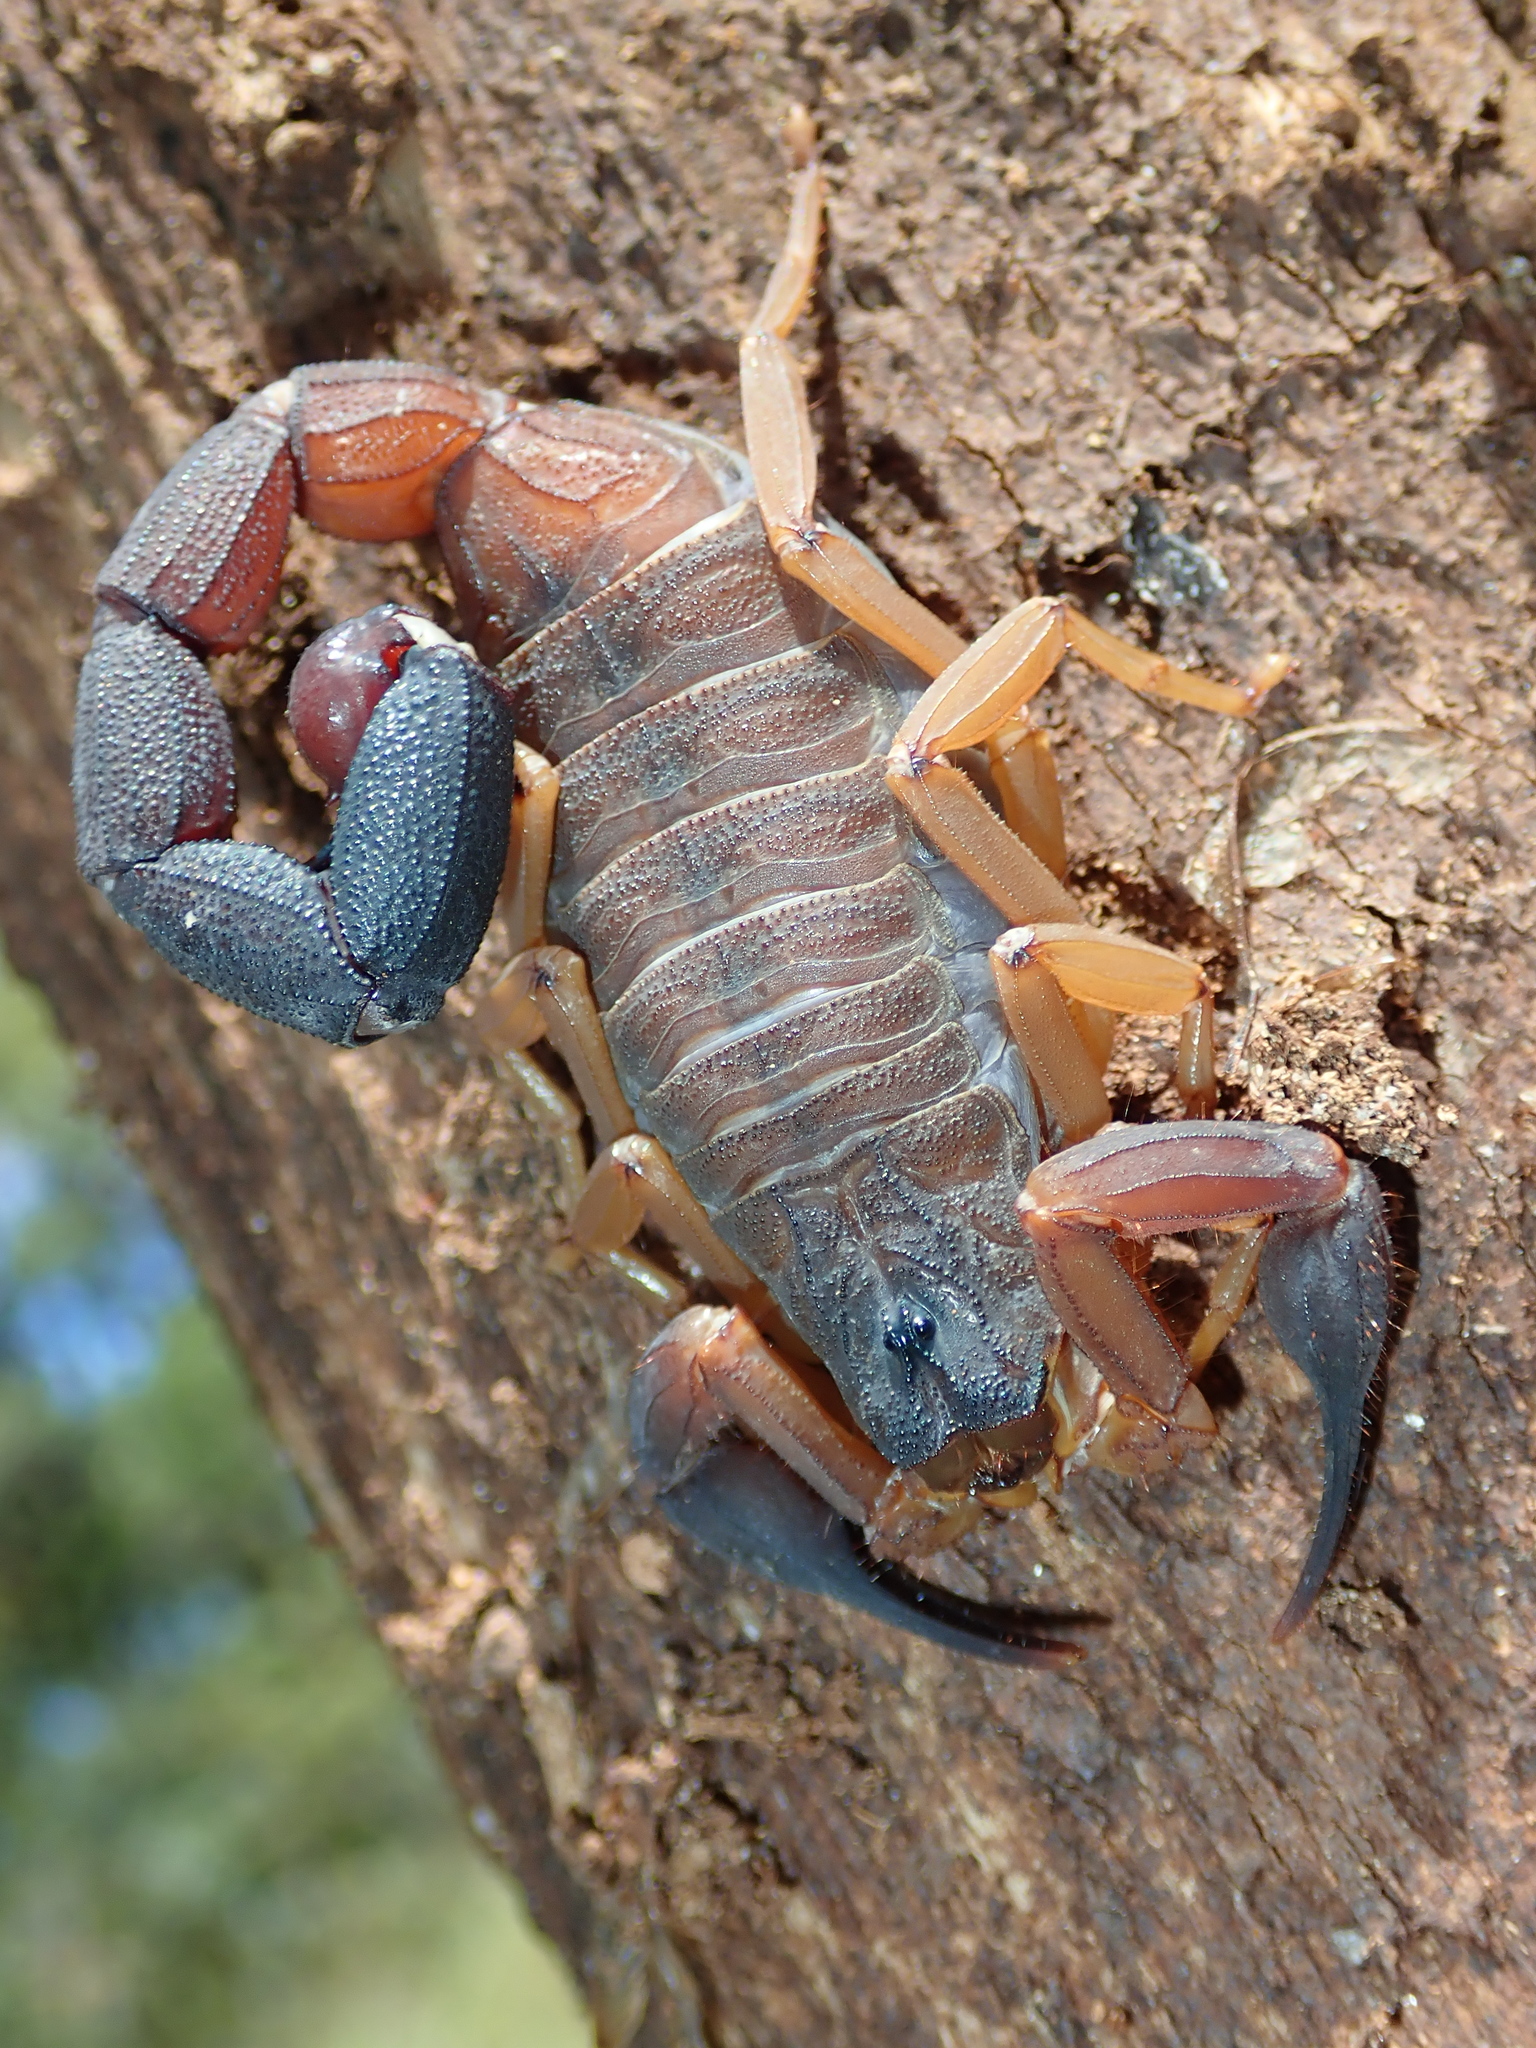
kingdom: Animalia
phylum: Arthropoda
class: Arachnida
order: Scorpiones
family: Buthidae
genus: Jaguajir
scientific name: Jaguajir agamemnon
